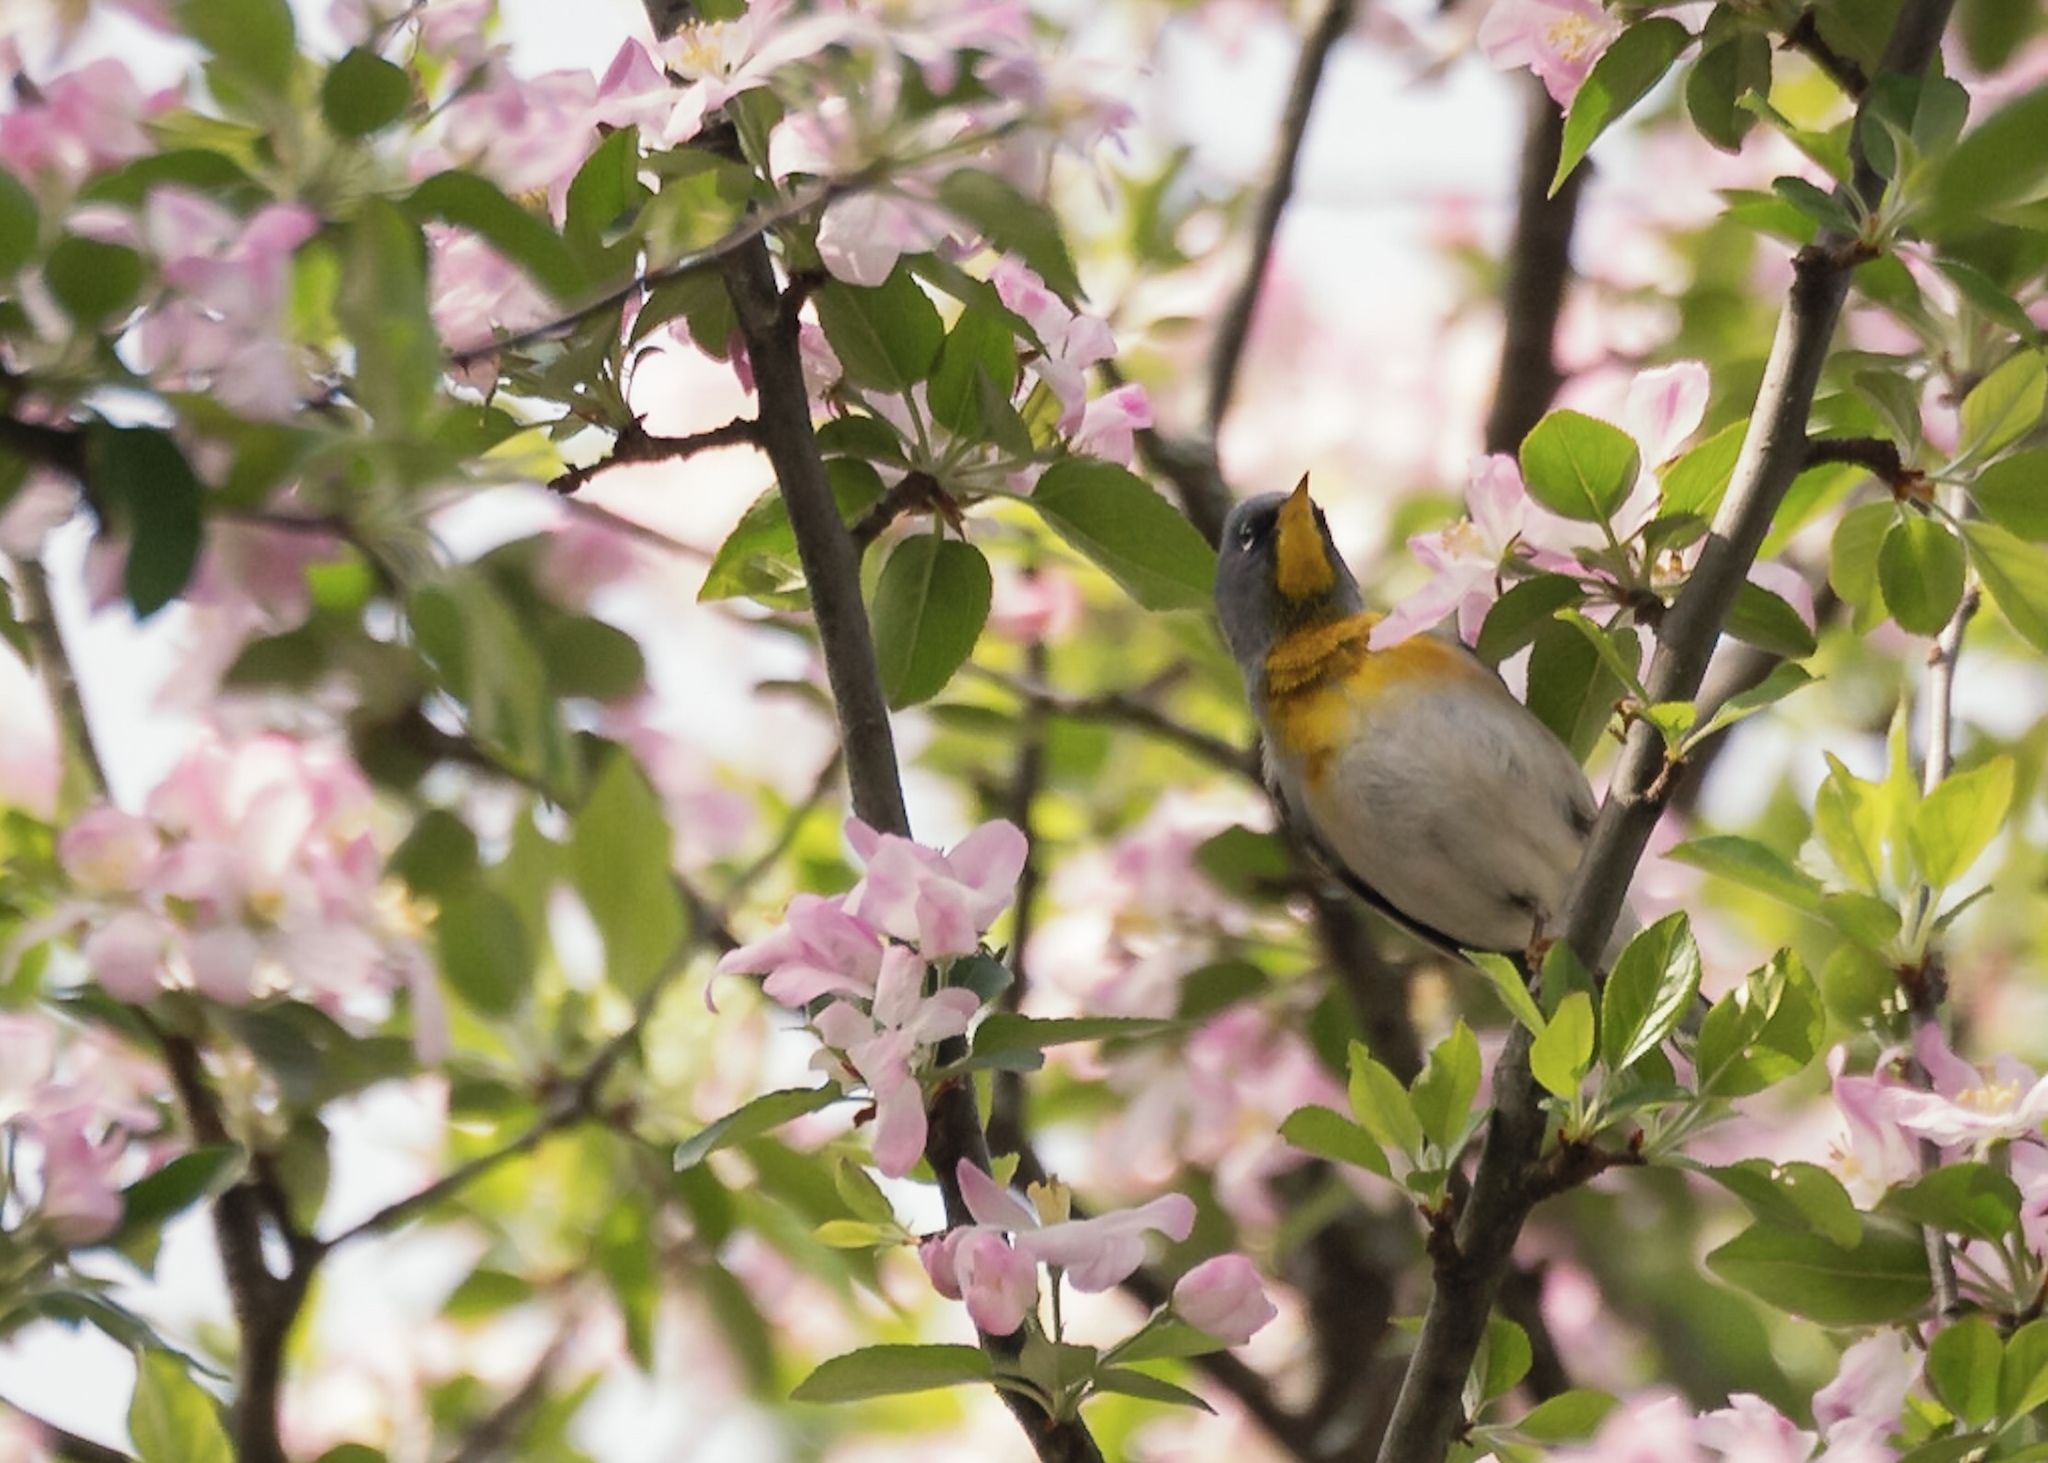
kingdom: Animalia
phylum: Chordata
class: Aves
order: Passeriformes
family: Parulidae
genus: Setophaga
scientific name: Setophaga americana
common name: Northern parula
